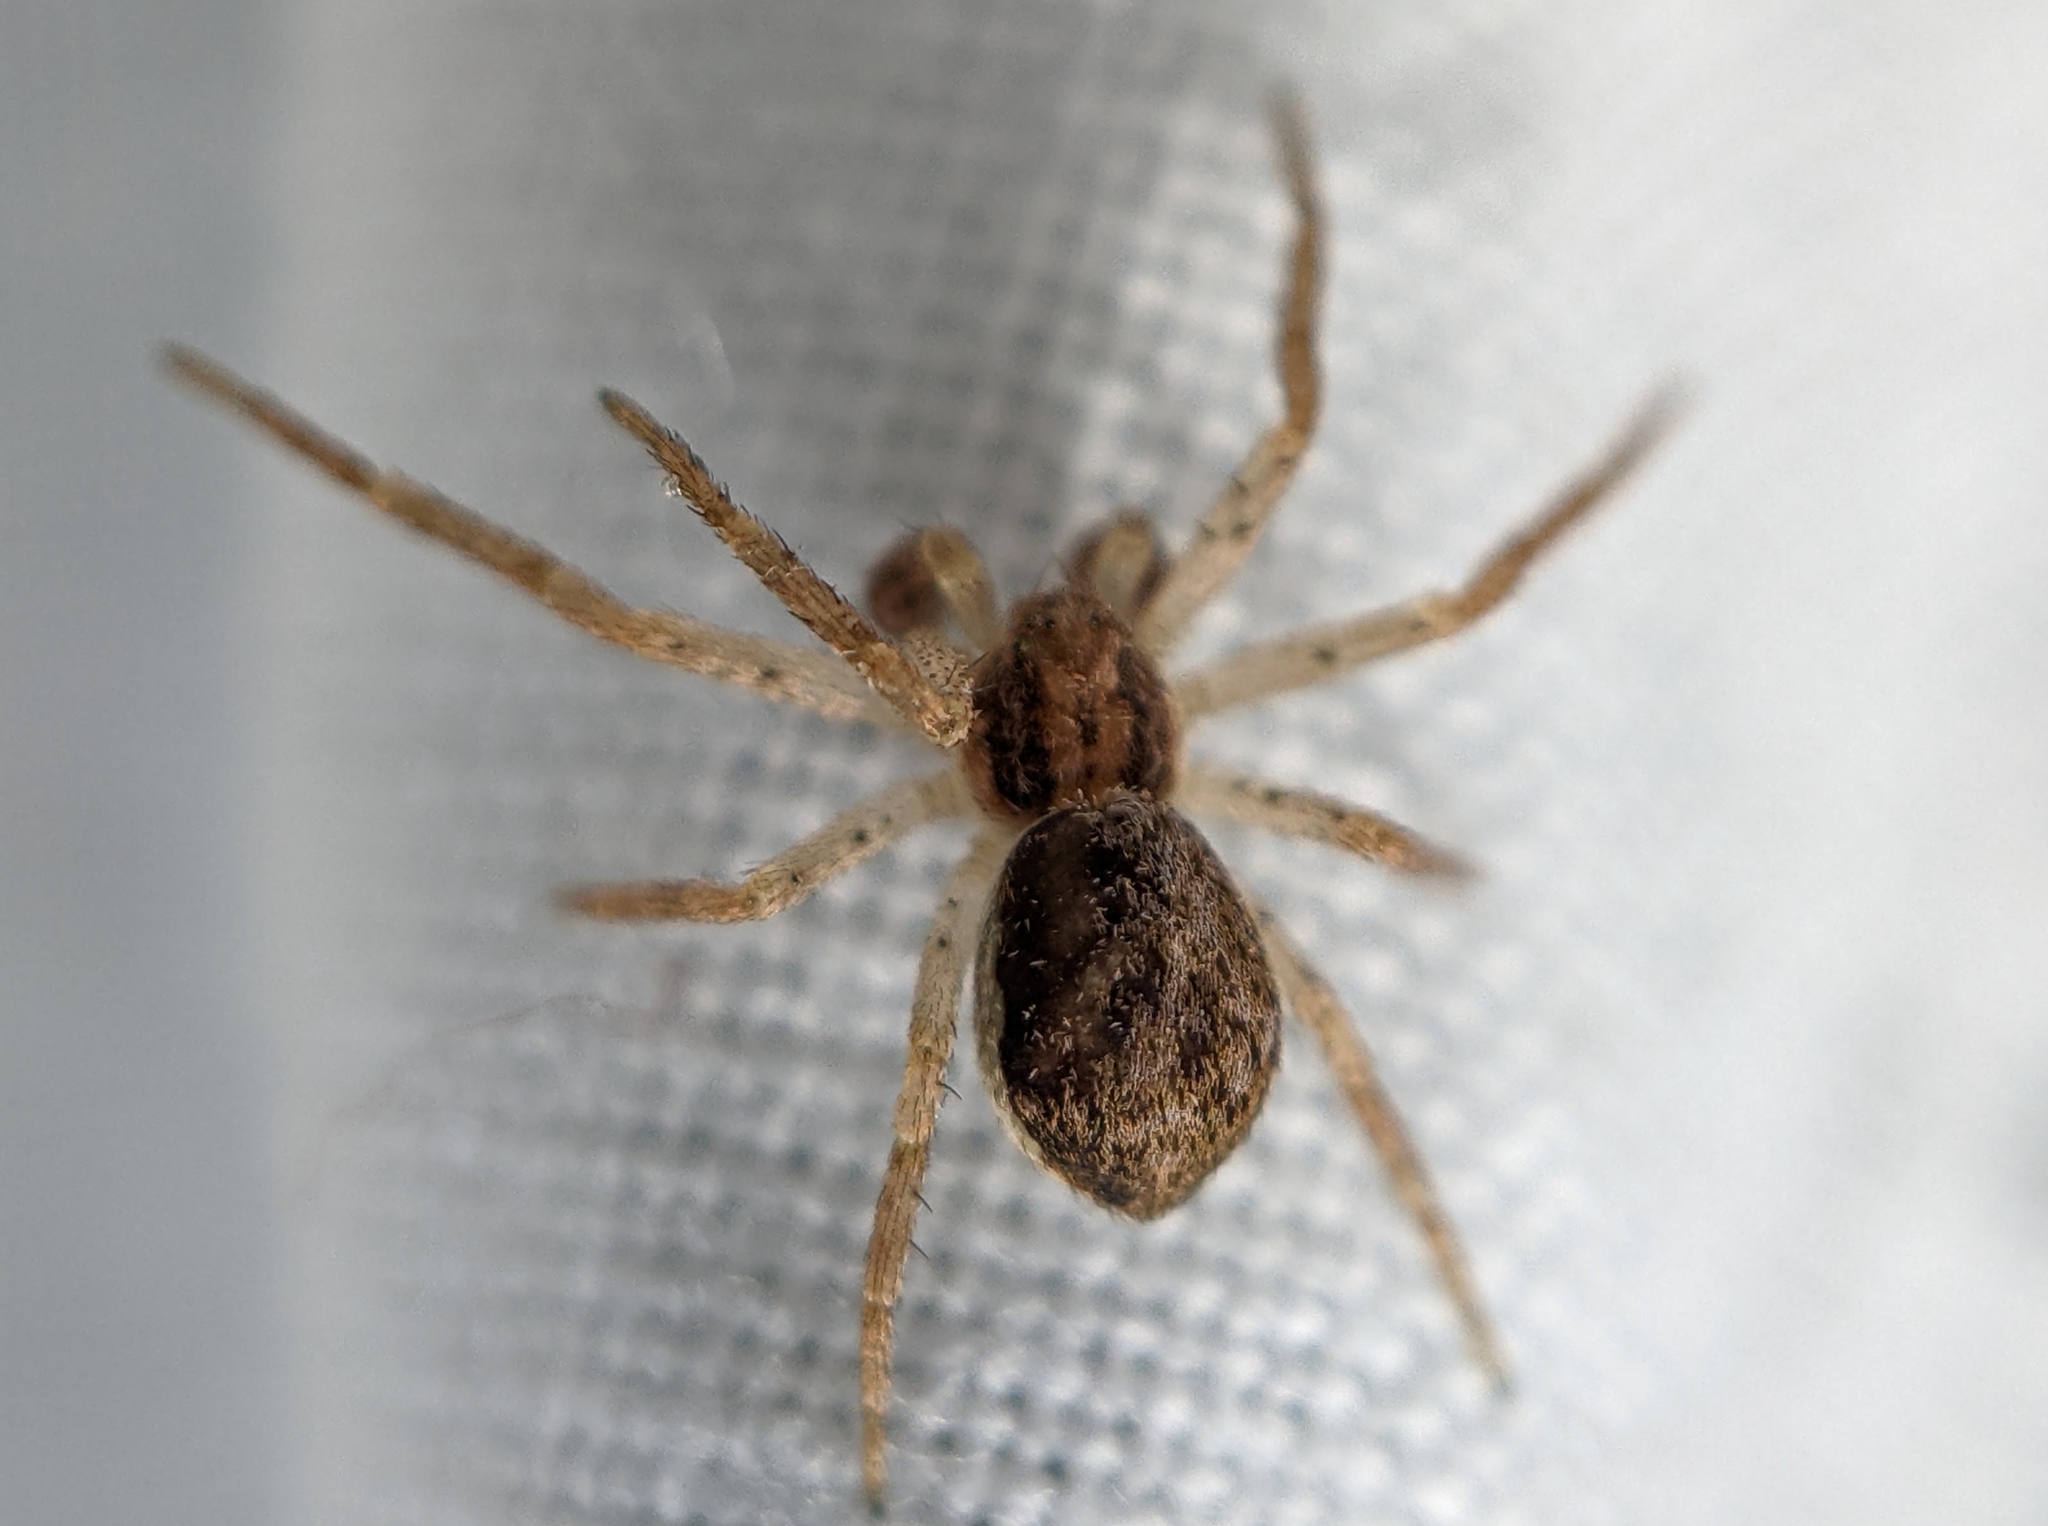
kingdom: Animalia
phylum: Arthropoda
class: Arachnida
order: Araneae
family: Philodromidae
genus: Philodromus
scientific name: Philodromus dispar
